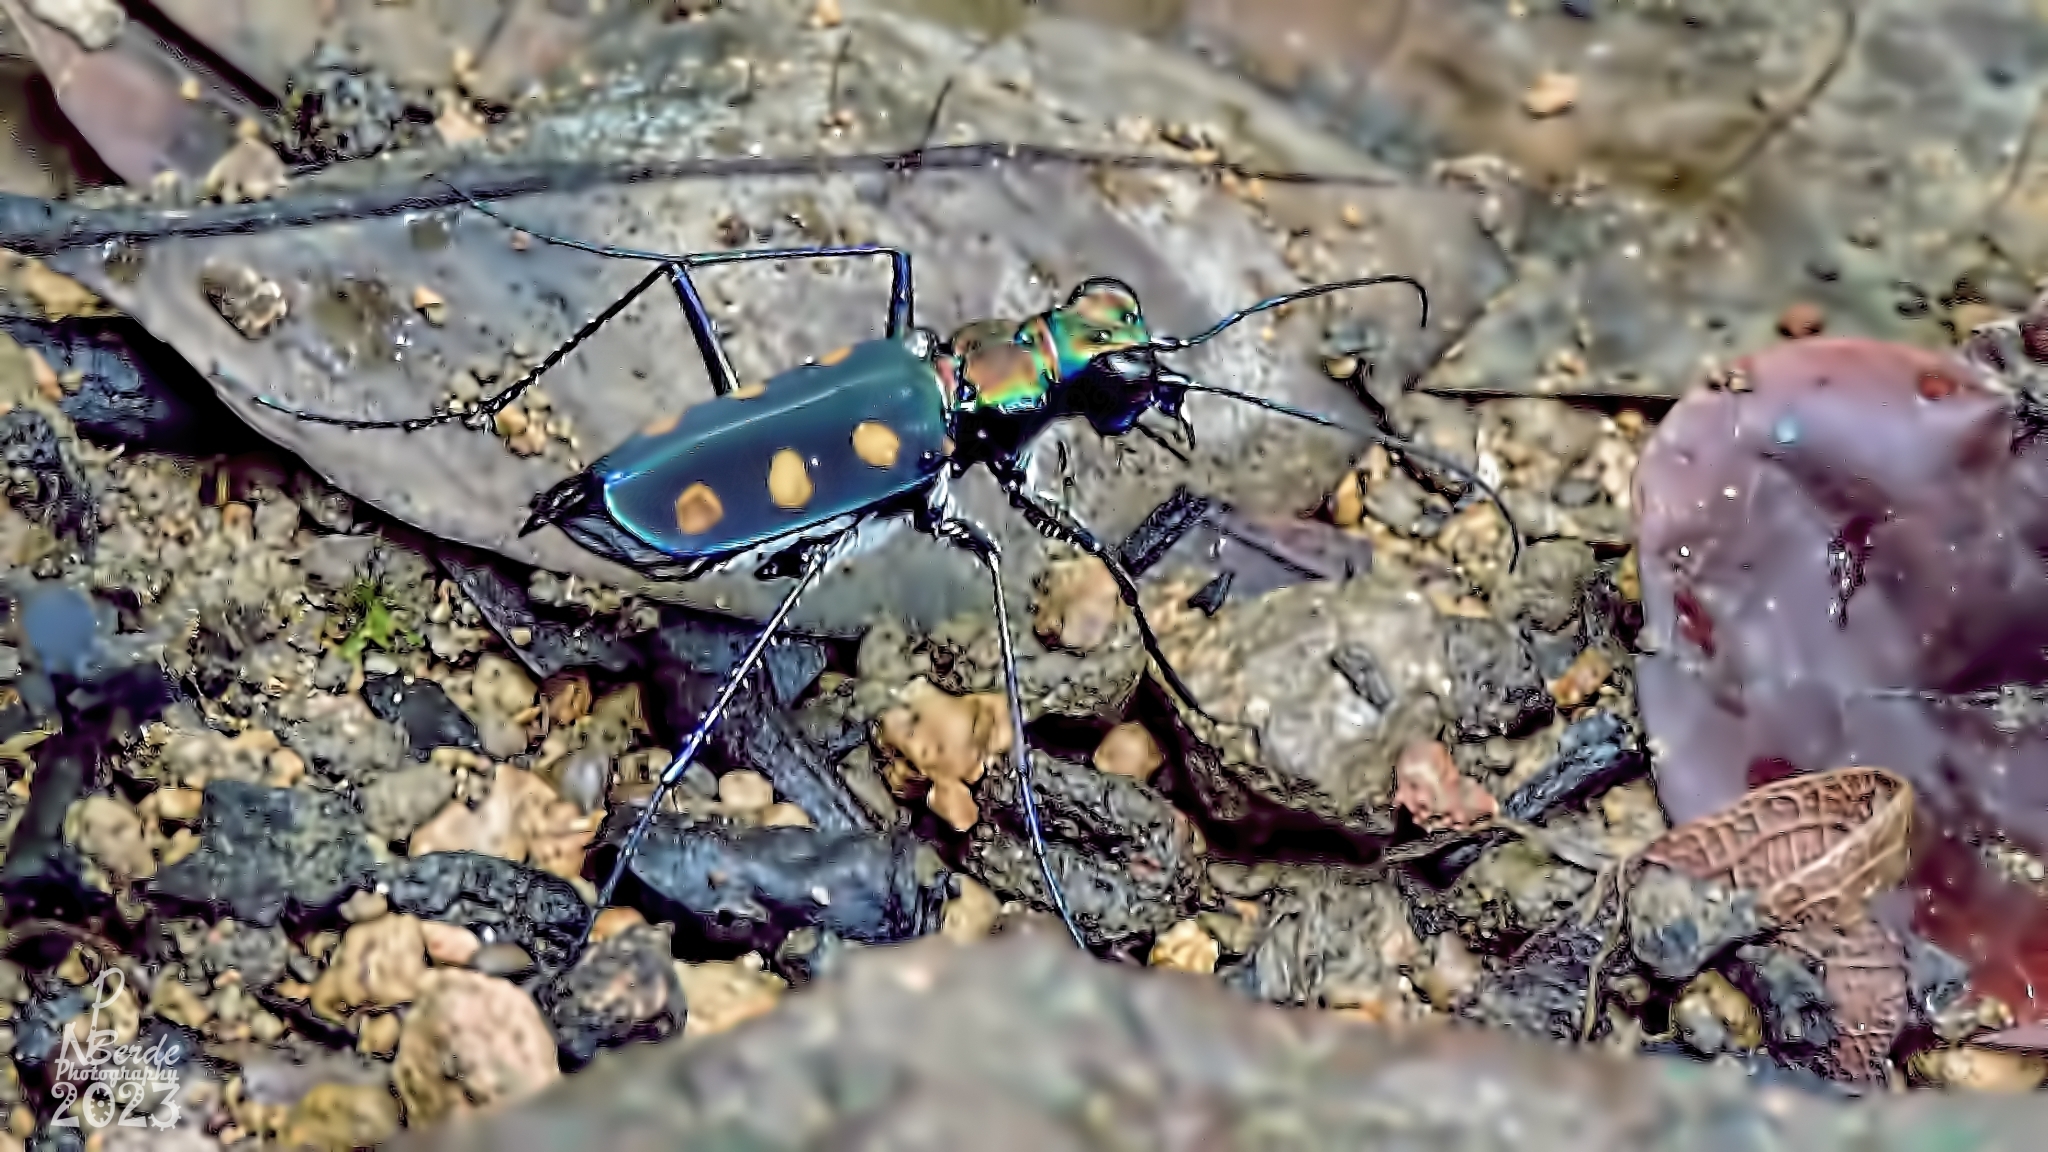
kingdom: Animalia
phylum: Arthropoda
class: Insecta
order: Coleoptera
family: Carabidae
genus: Cicindela
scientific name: Cicindela safraneki
